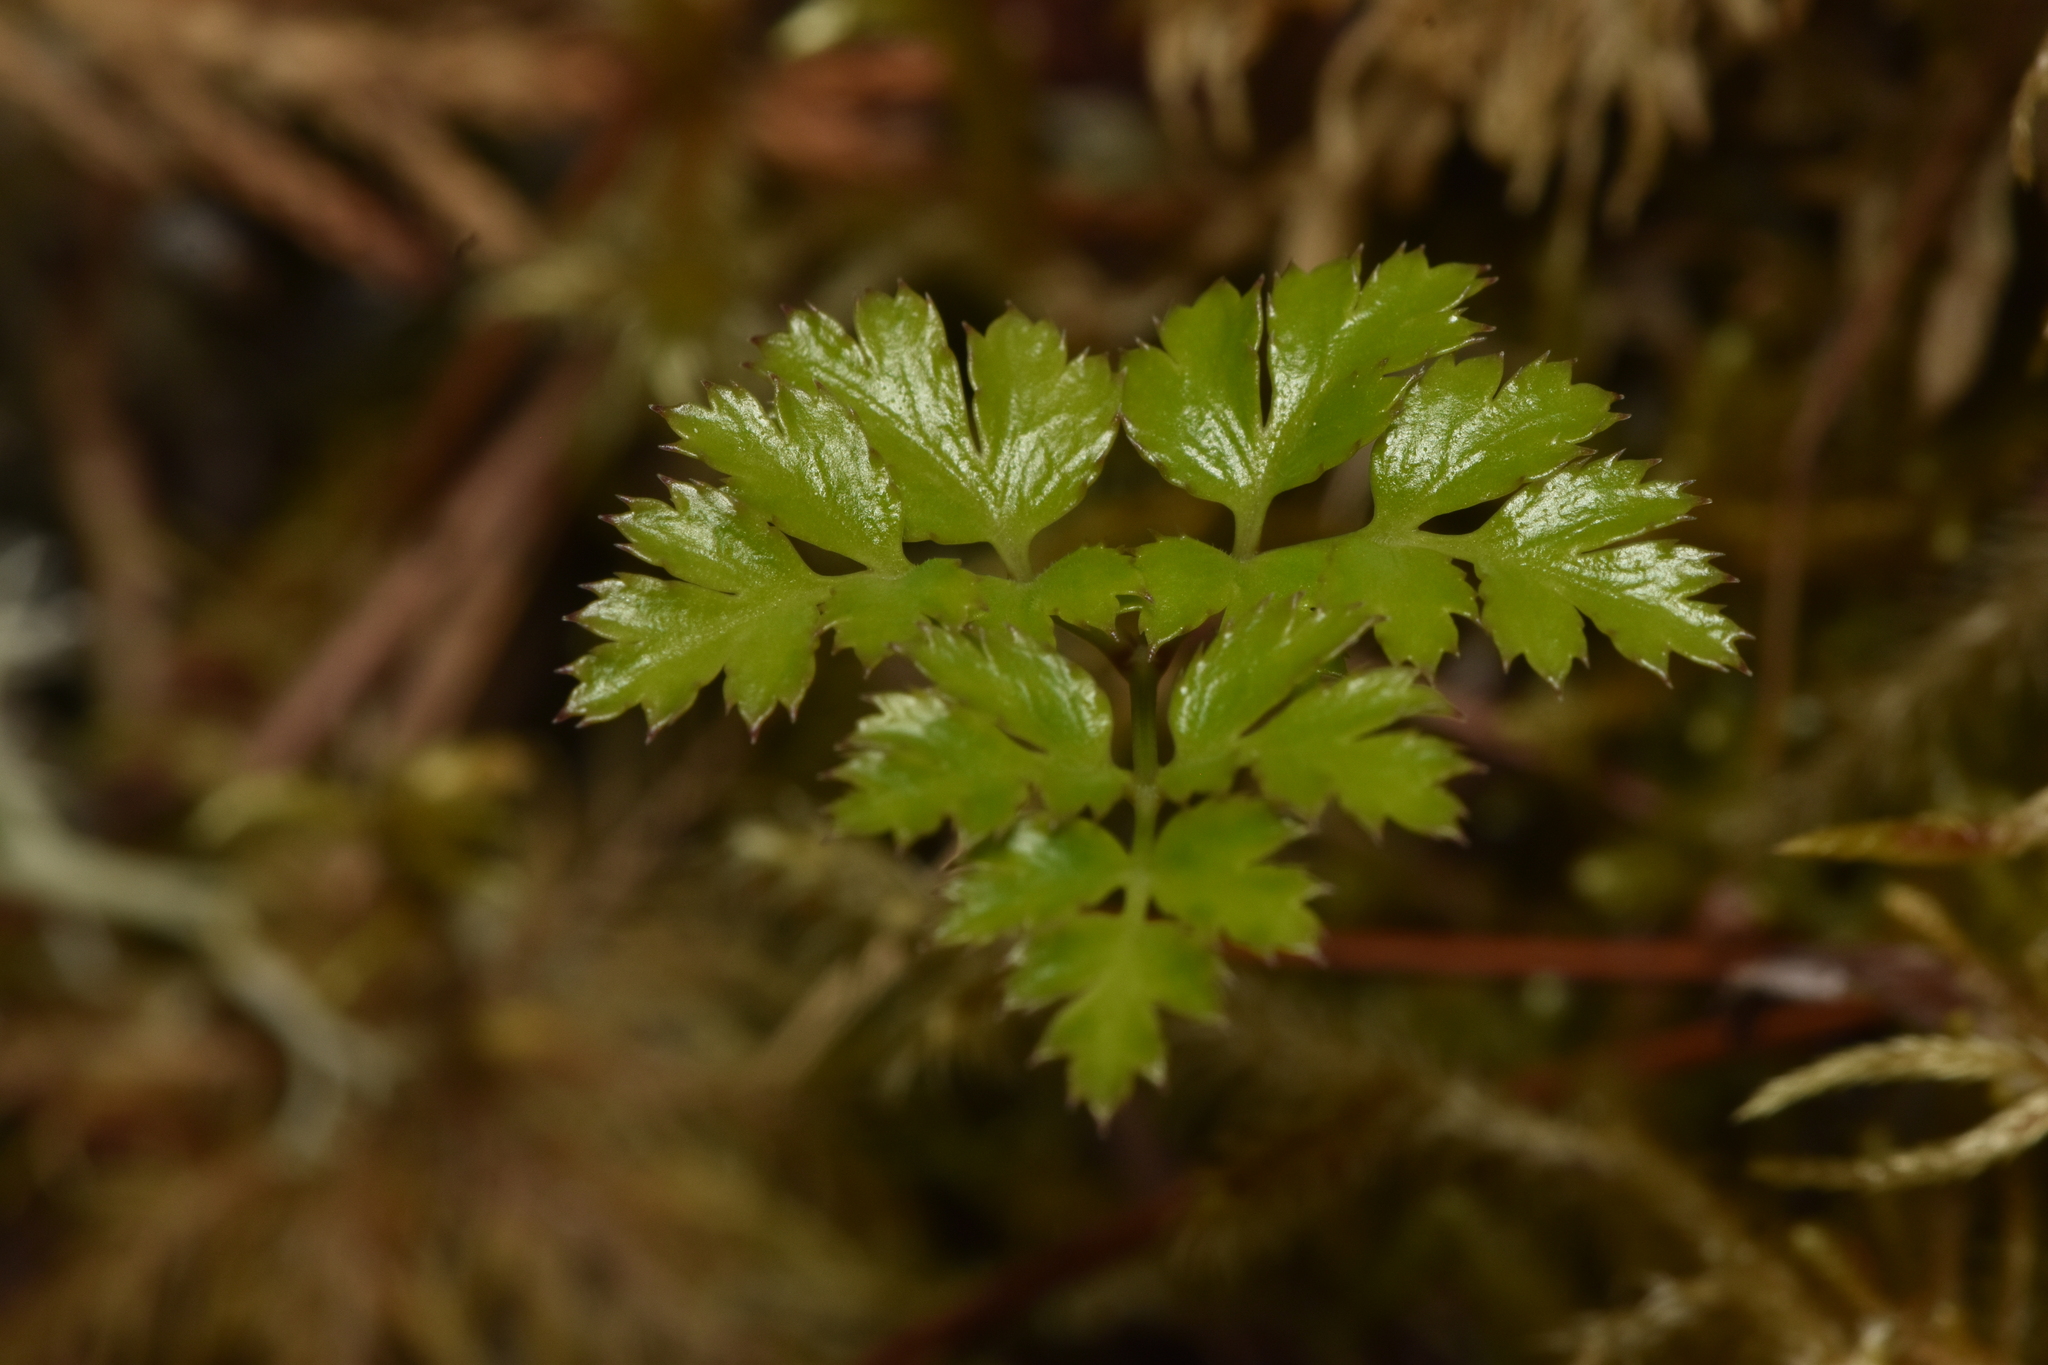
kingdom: Plantae
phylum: Tracheophyta
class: Magnoliopsida
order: Ranunculales
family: Ranunculaceae
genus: Coptis
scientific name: Coptis aspleniifolia
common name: Fern-leaved goldthread
